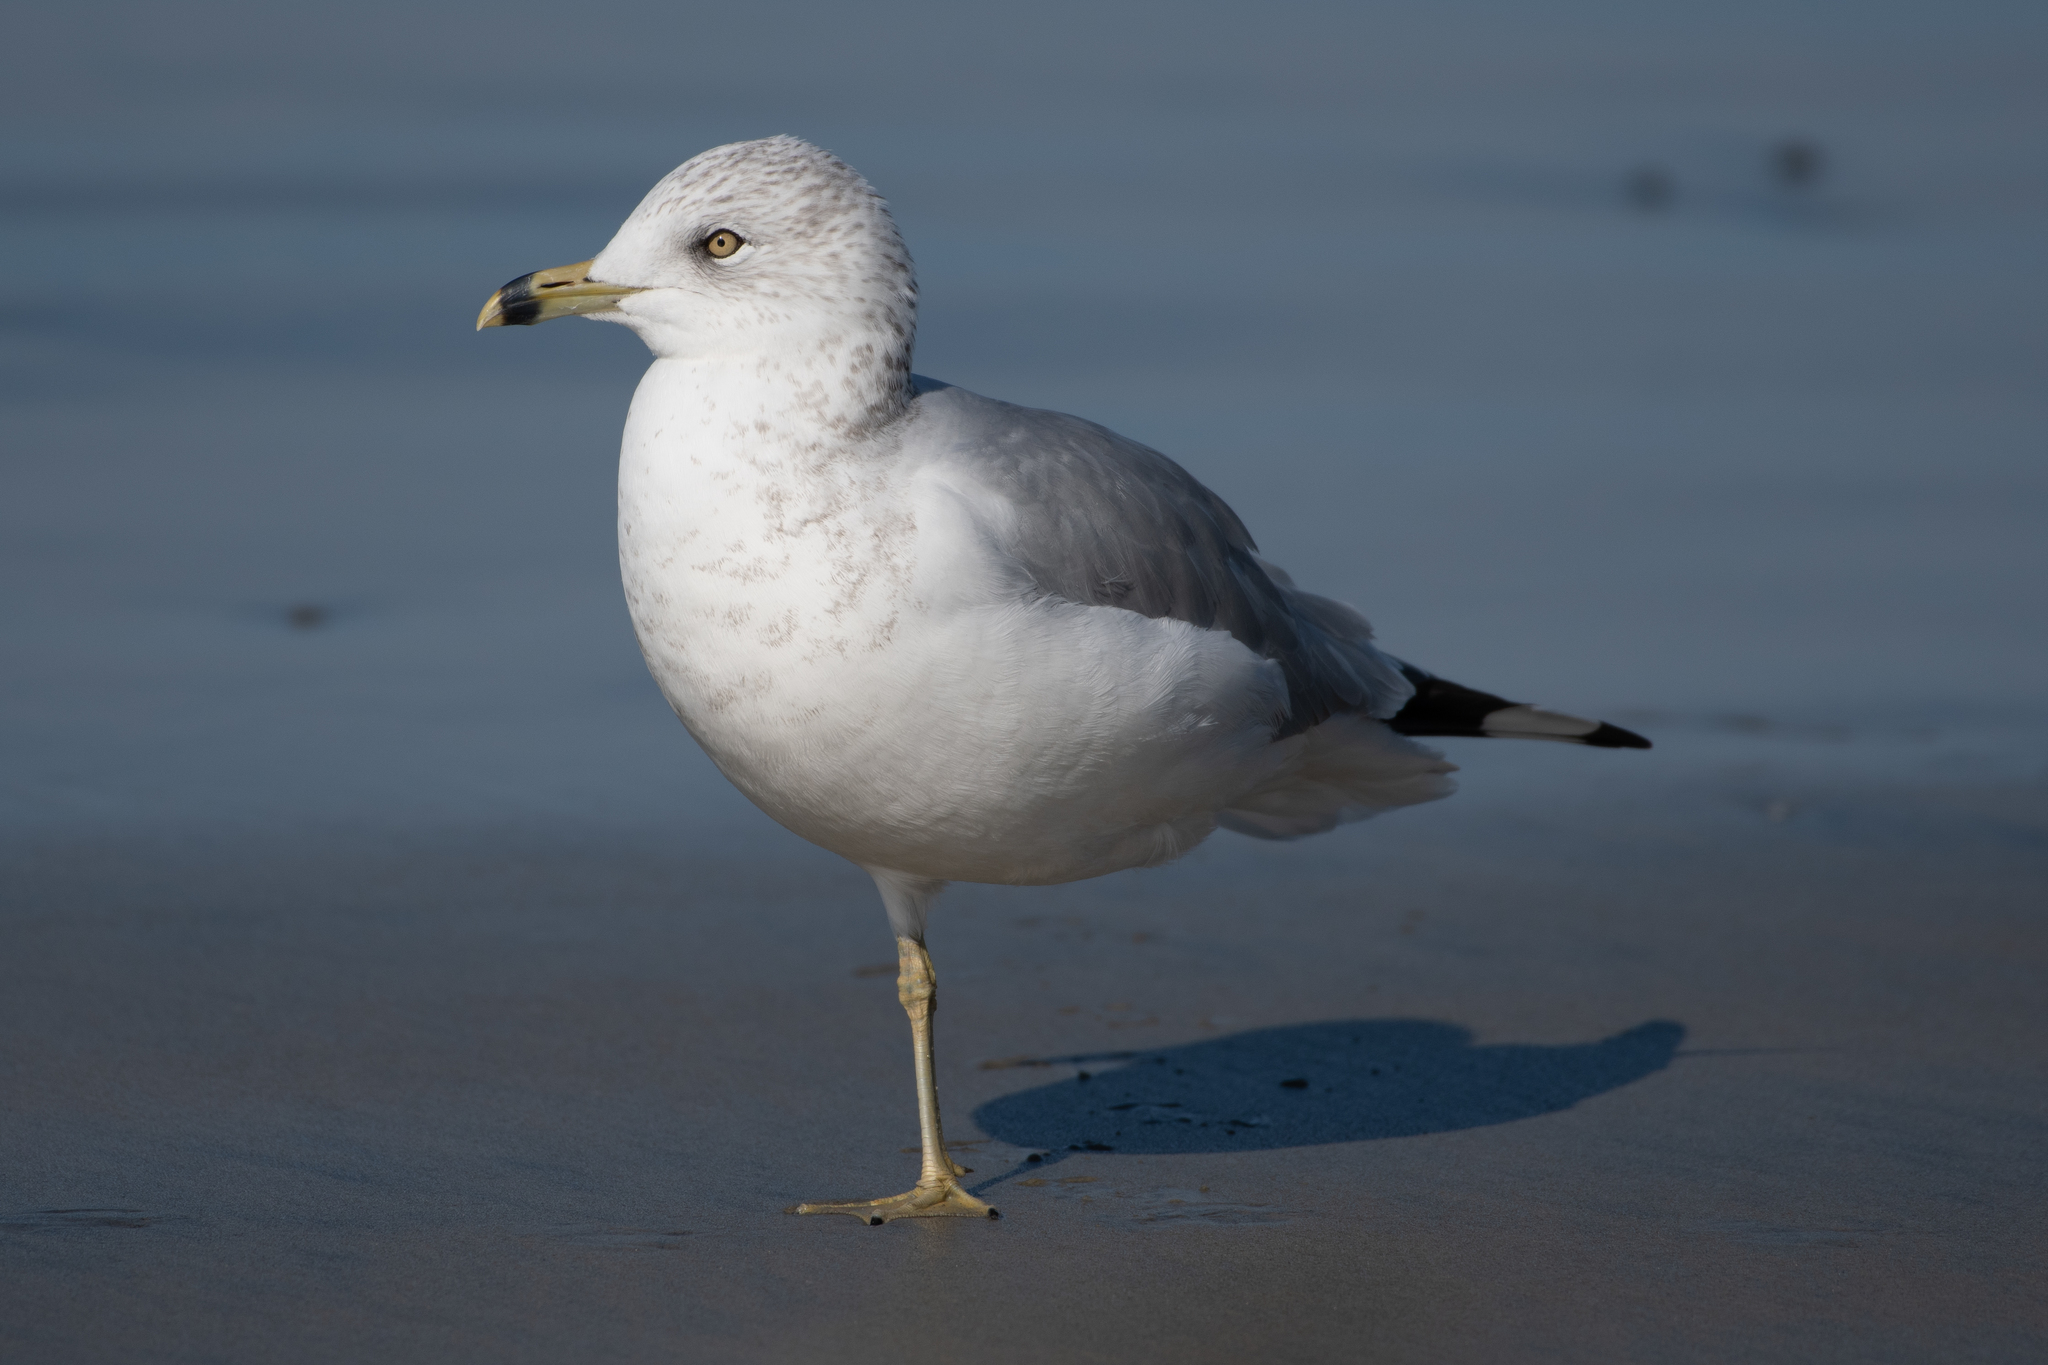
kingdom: Animalia
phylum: Chordata
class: Aves
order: Charadriiformes
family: Laridae
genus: Larus
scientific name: Larus delawarensis
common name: Ring-billed gull
